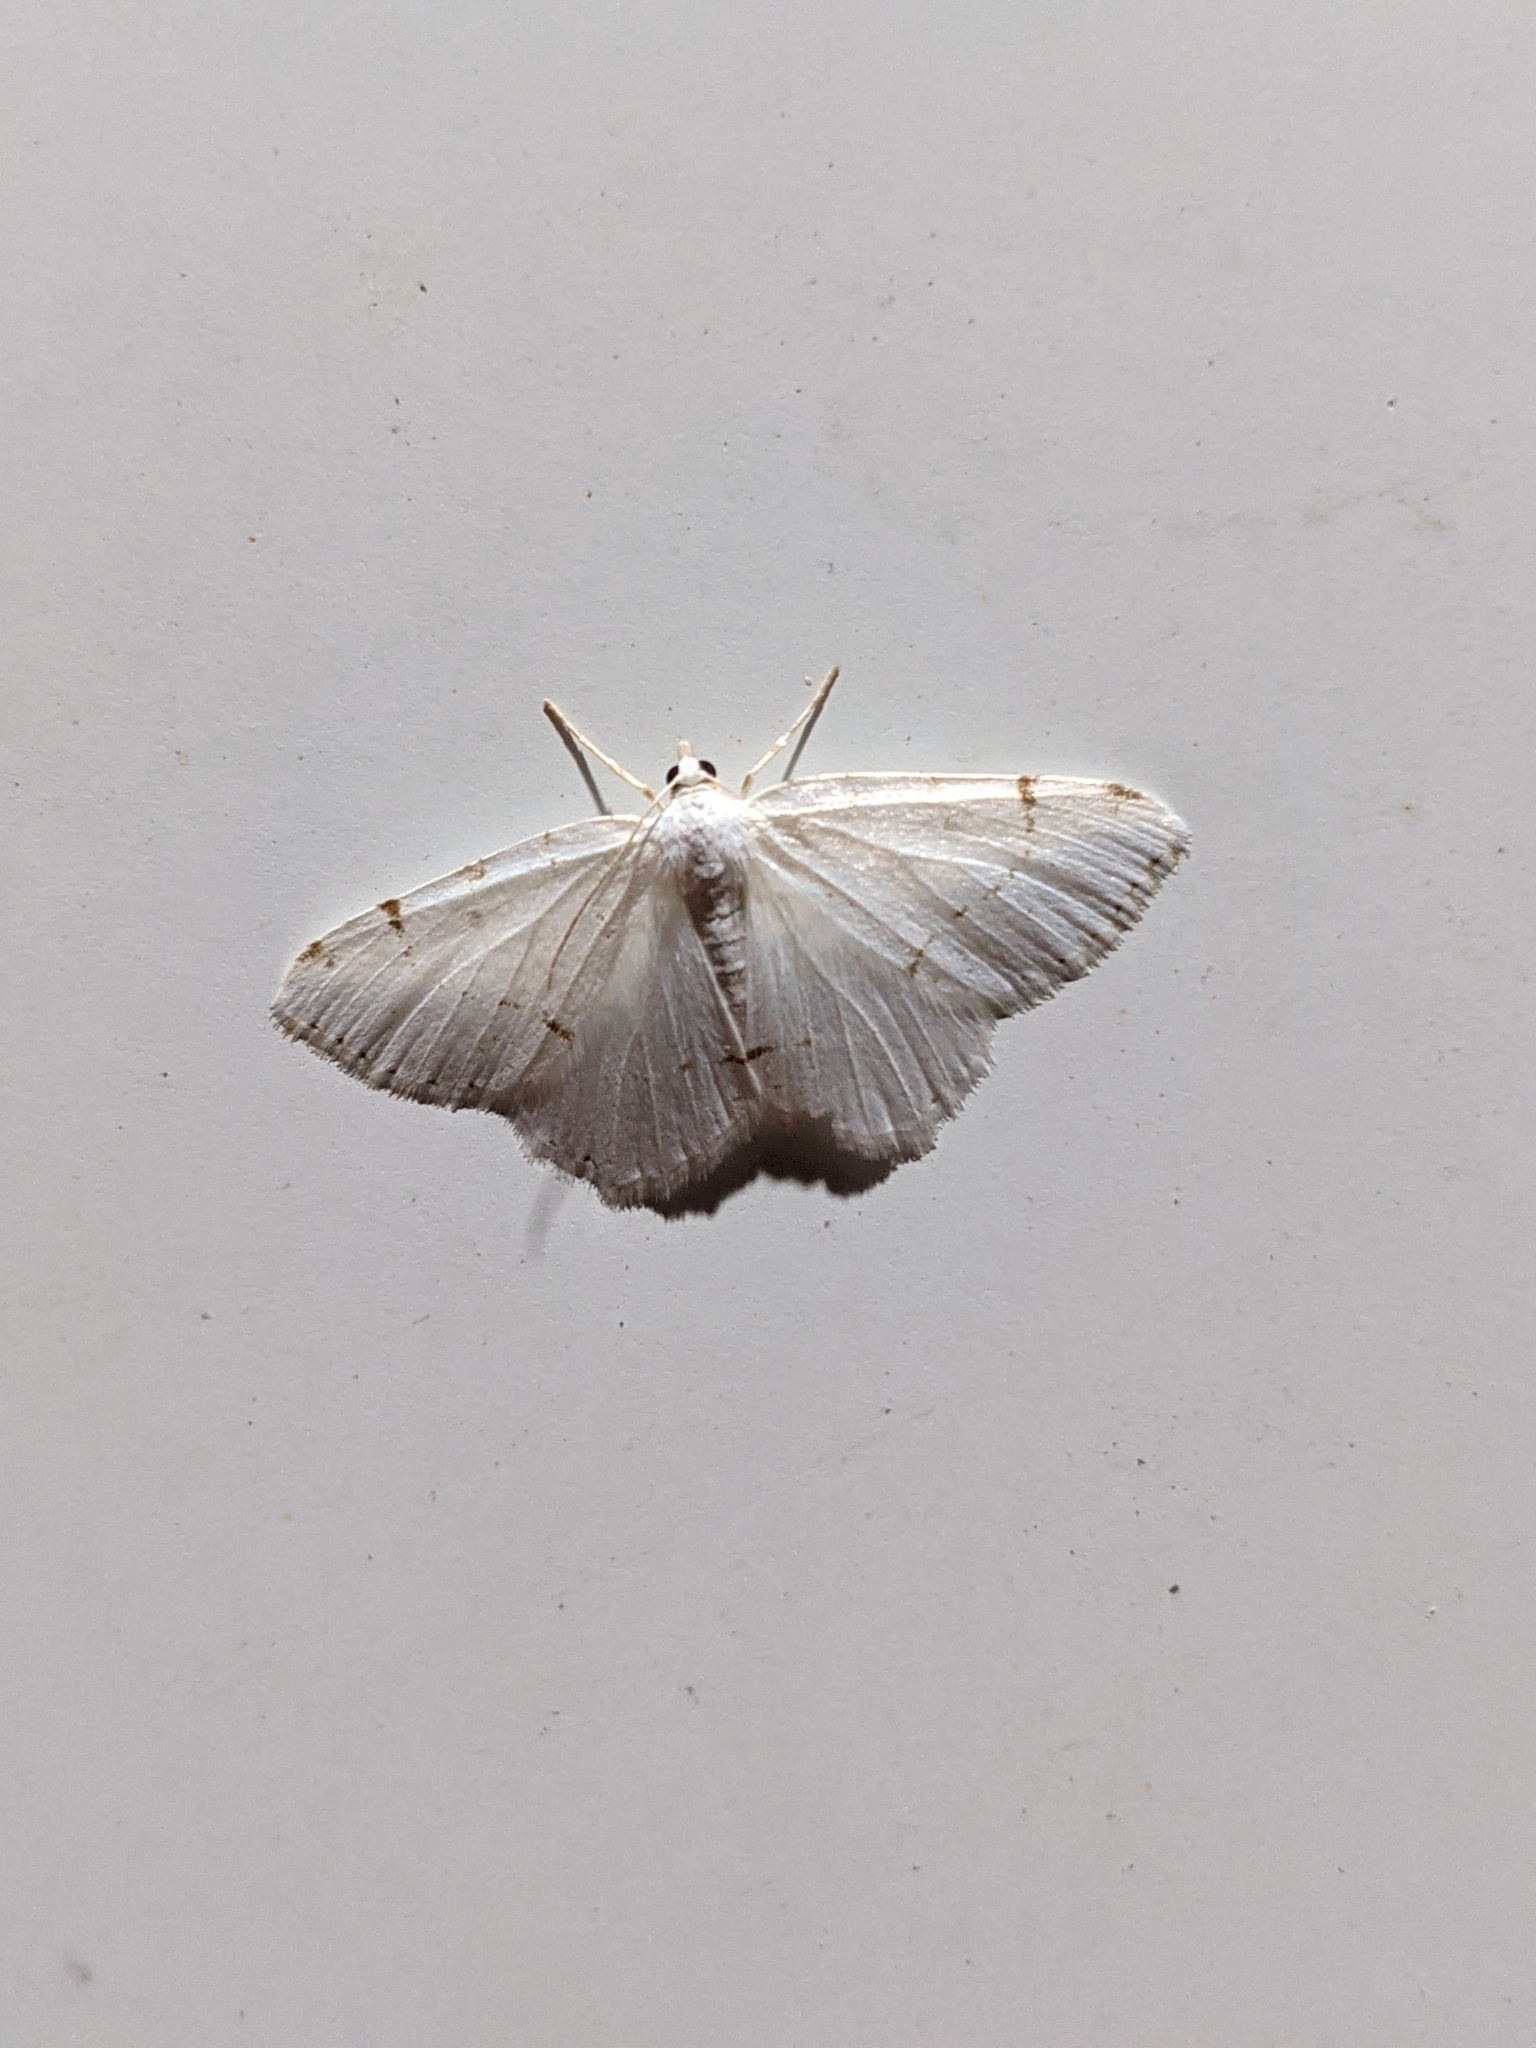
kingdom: Animalia
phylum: Arthropoda
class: Insecta
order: Lepidoptera
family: Geometridae
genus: Macaria
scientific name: Macaria pustularia
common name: Lesser maple spanworm moth
